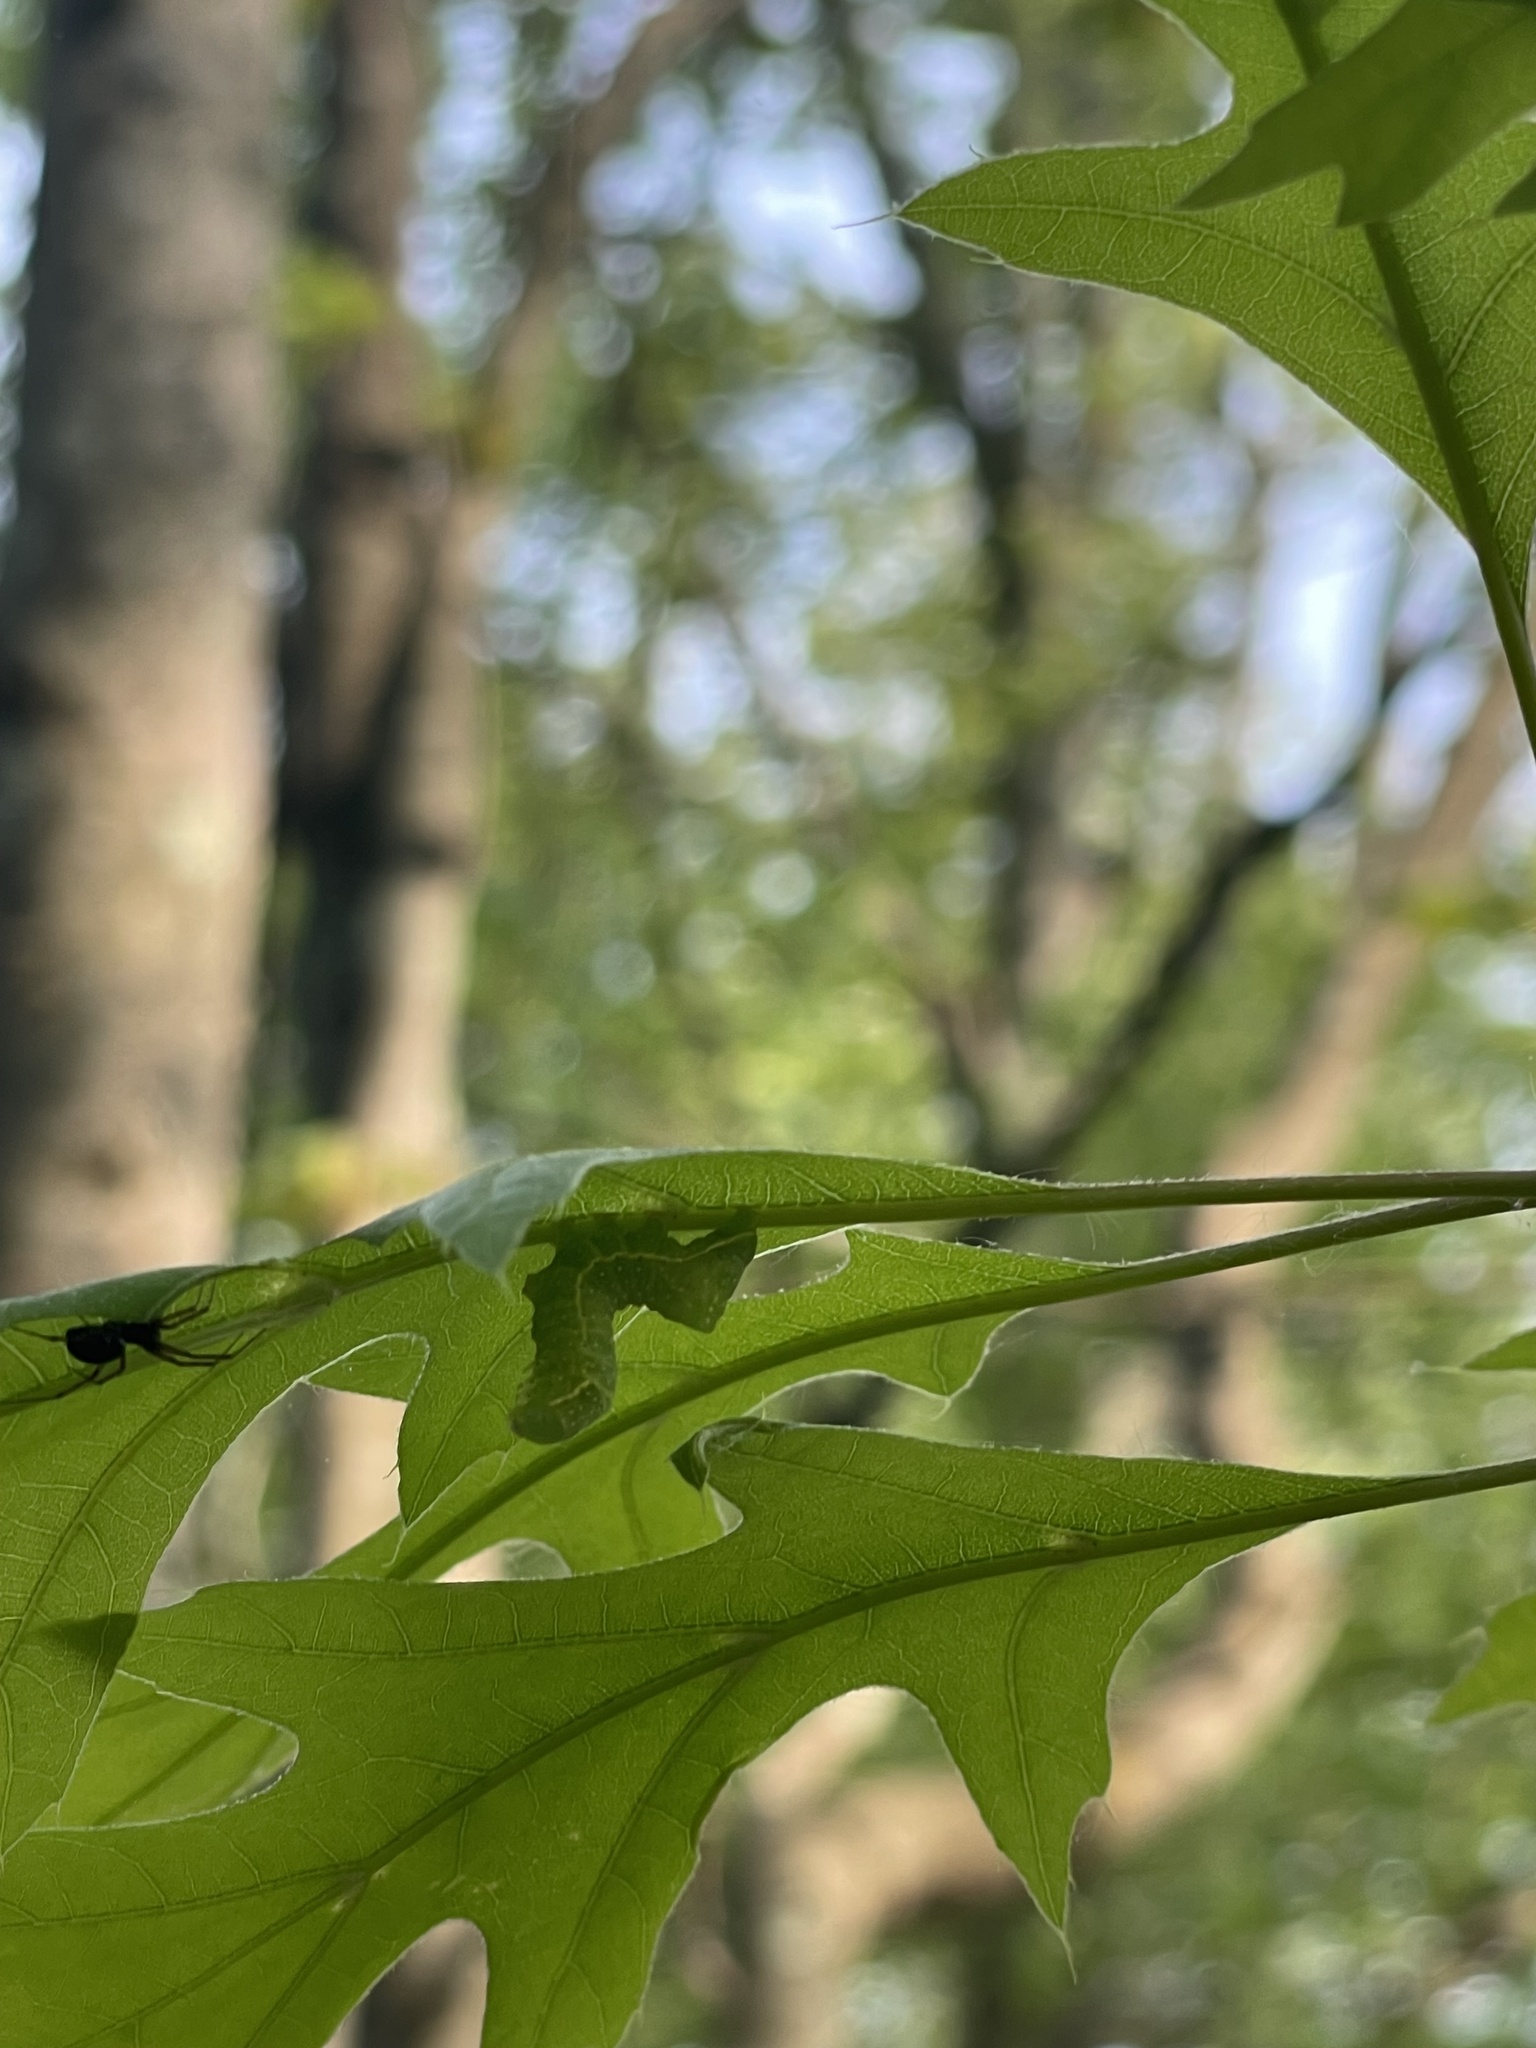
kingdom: Animalia
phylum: Arthropoda
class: Insecta
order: Lepidoptera
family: Noctuidae
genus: Amphipyra
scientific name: Amphipyra pyramidoides
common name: American copper underwing
